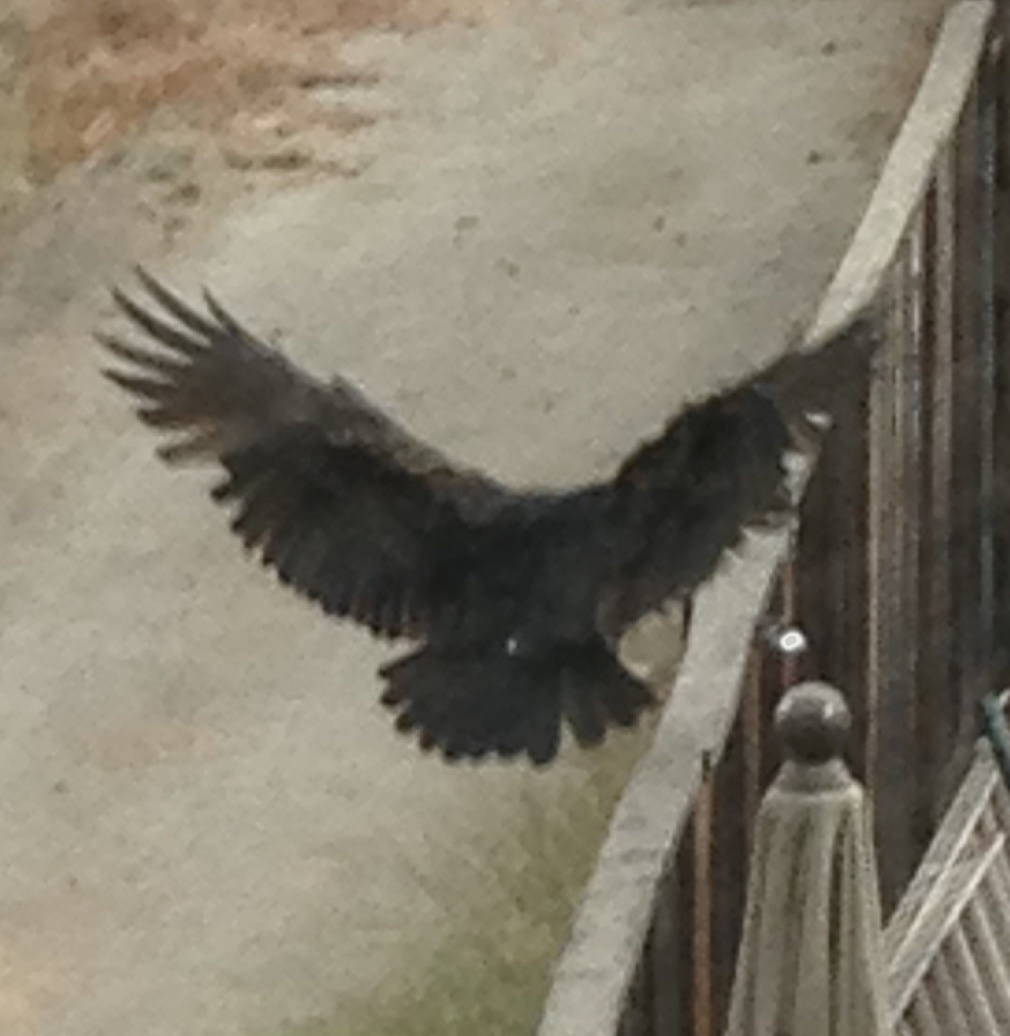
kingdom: Animalia
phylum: Chordata
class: Aves
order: Accipitriformes
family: Cathartidae
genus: Cathartes
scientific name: Cathartes aura
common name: Turkey vulture
